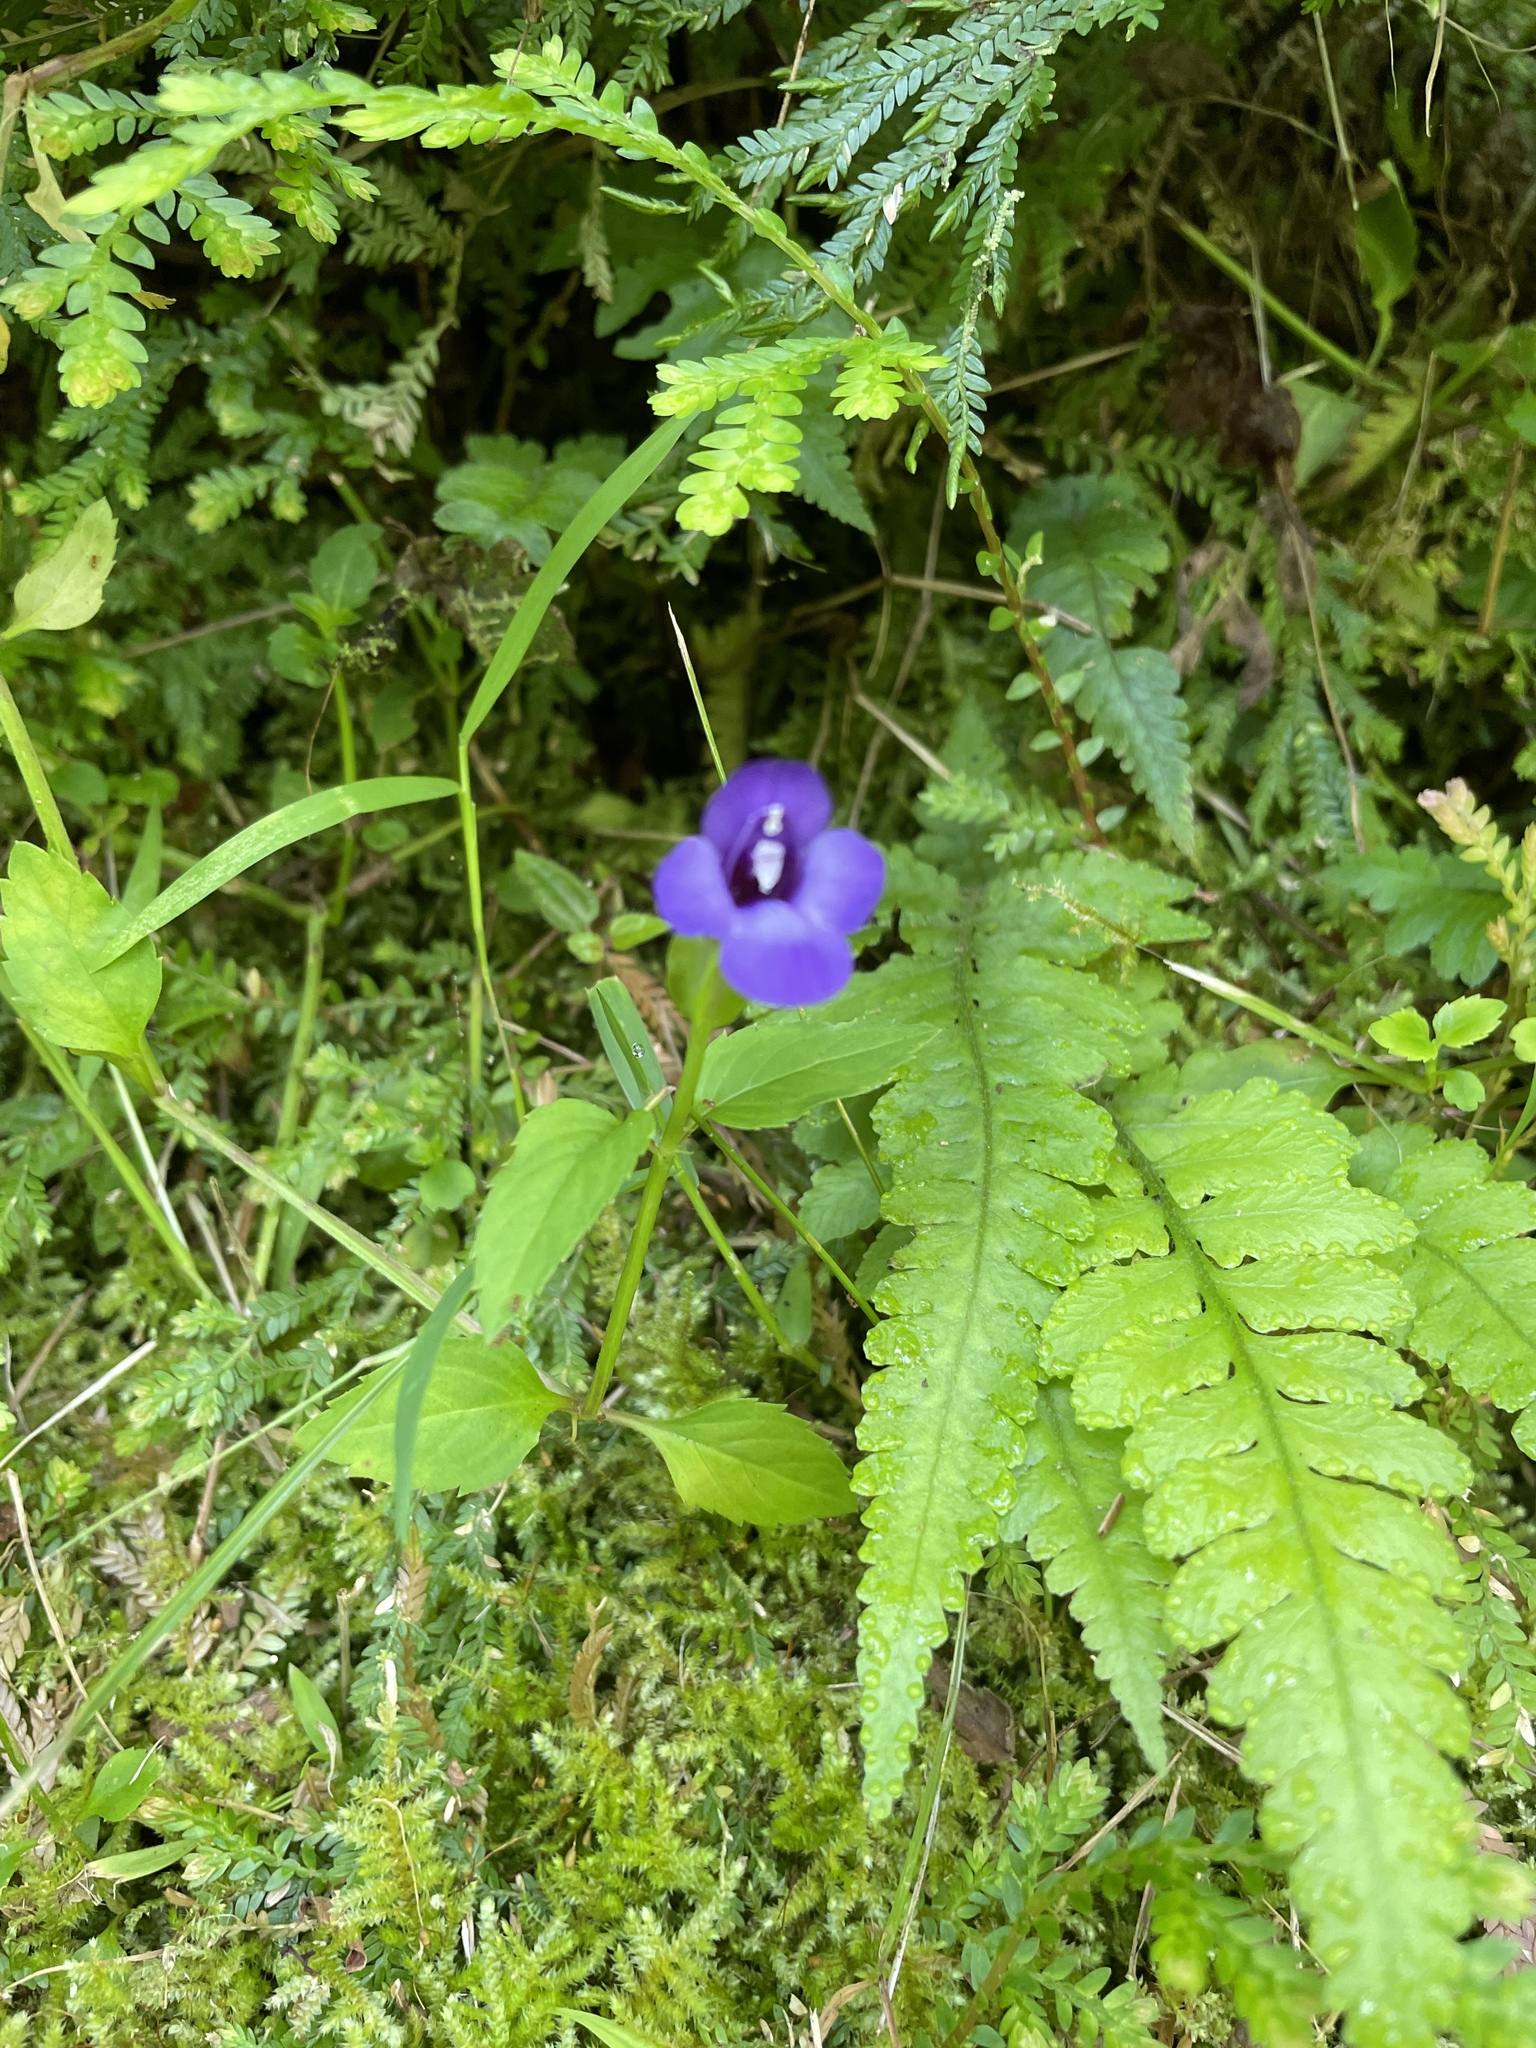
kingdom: Plantae
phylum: Tracheophyta
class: Magnoliopsida
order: Lamiales
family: Linderniaceae
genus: Torenia
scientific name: Torenia asiatica
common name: Wishbone flower
